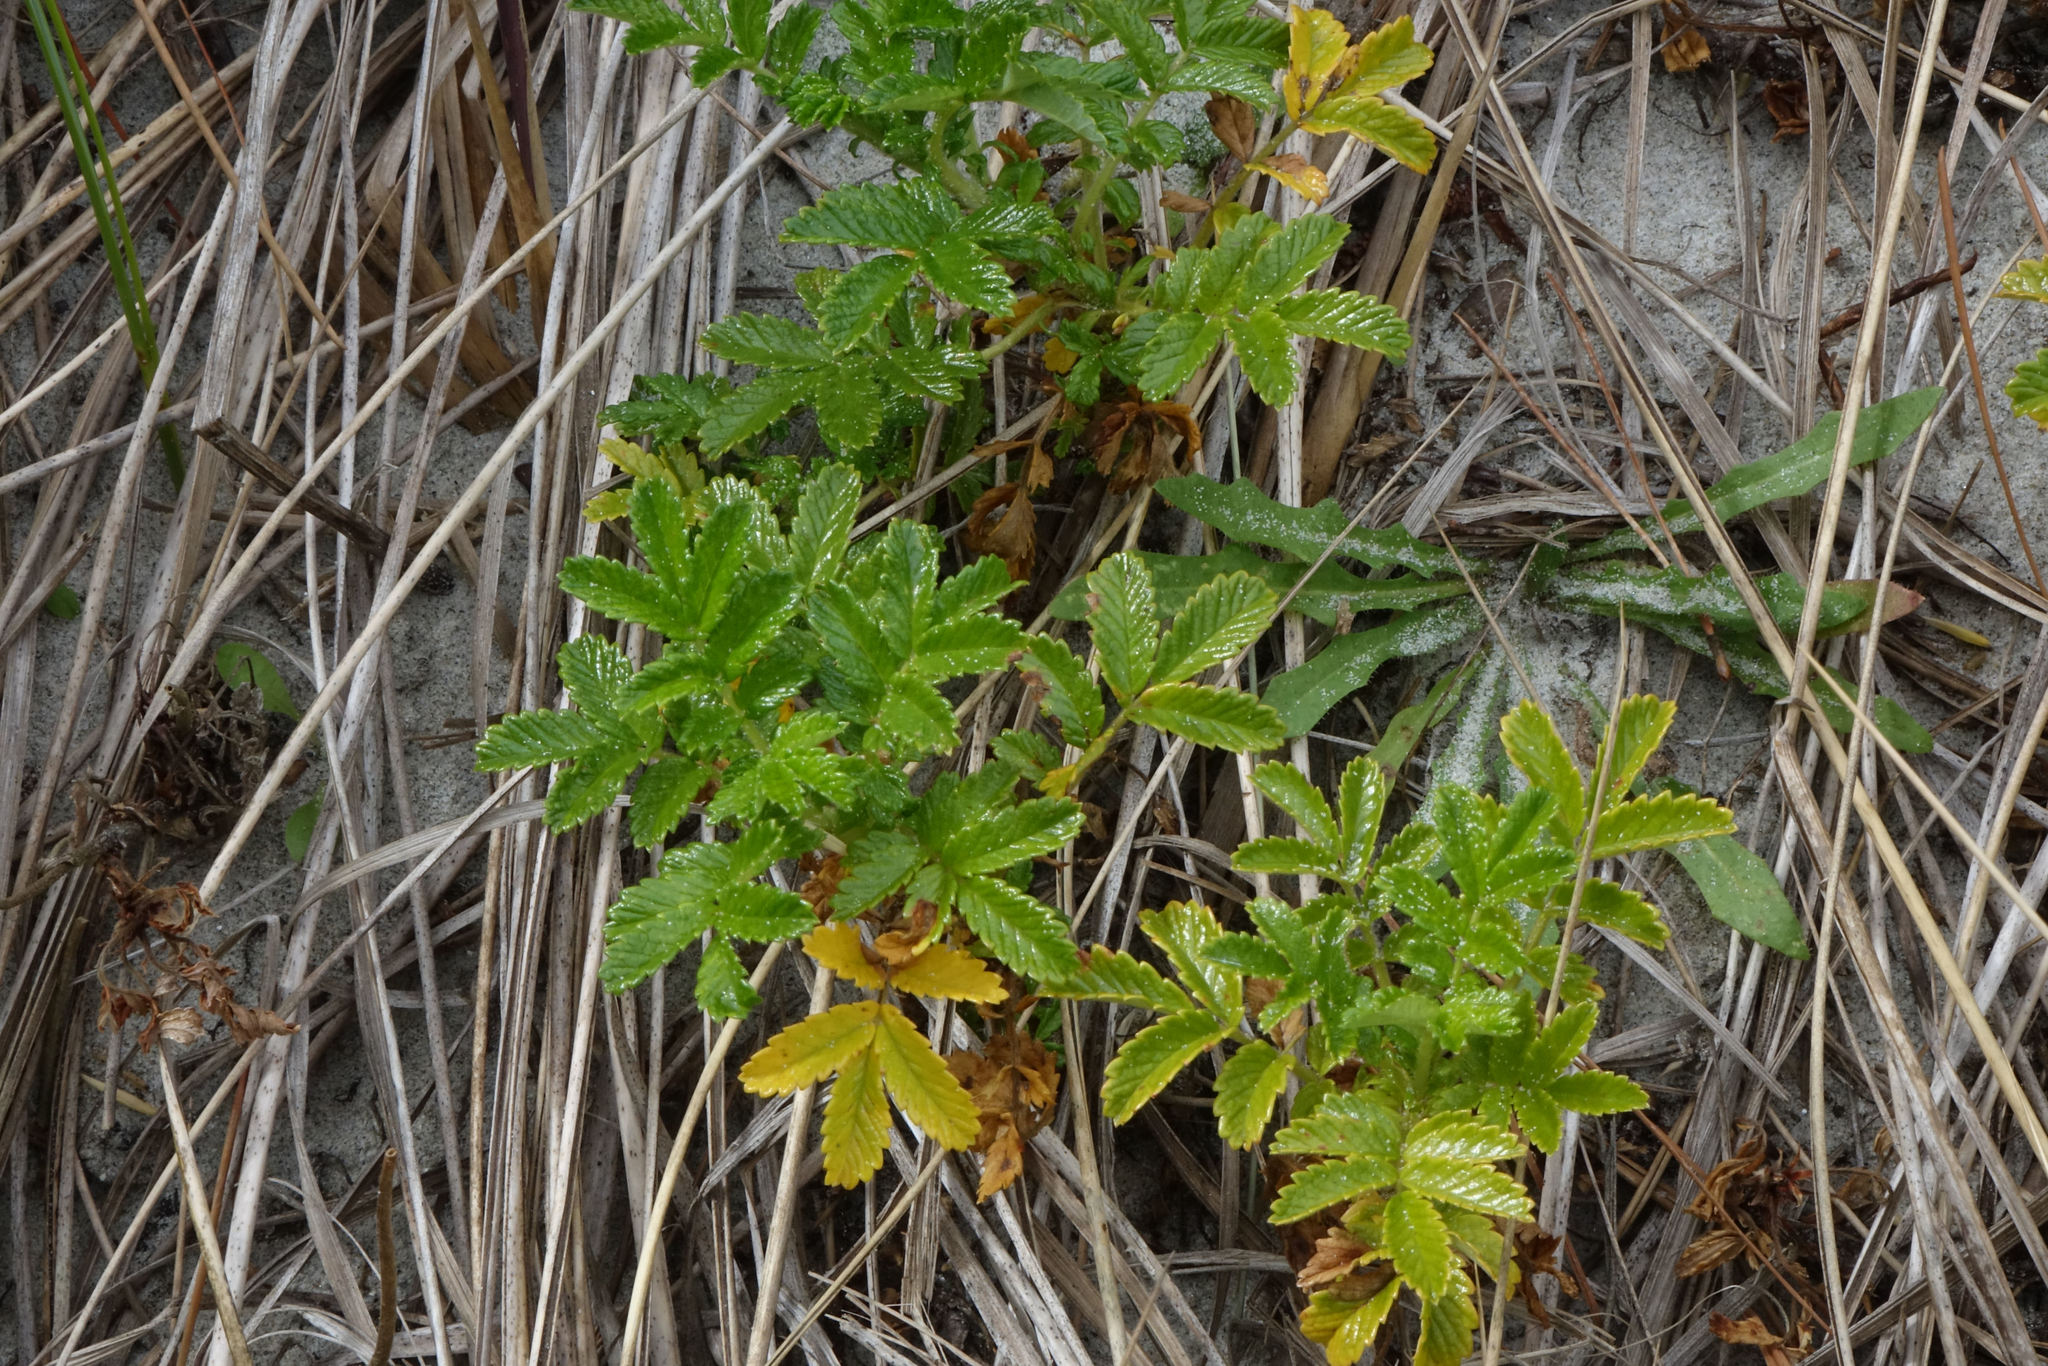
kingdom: Plantae
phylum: Tracheophyta
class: Magnoliopsida
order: Rosales
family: Rosaceae
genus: Acaena
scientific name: Acaena pallida
